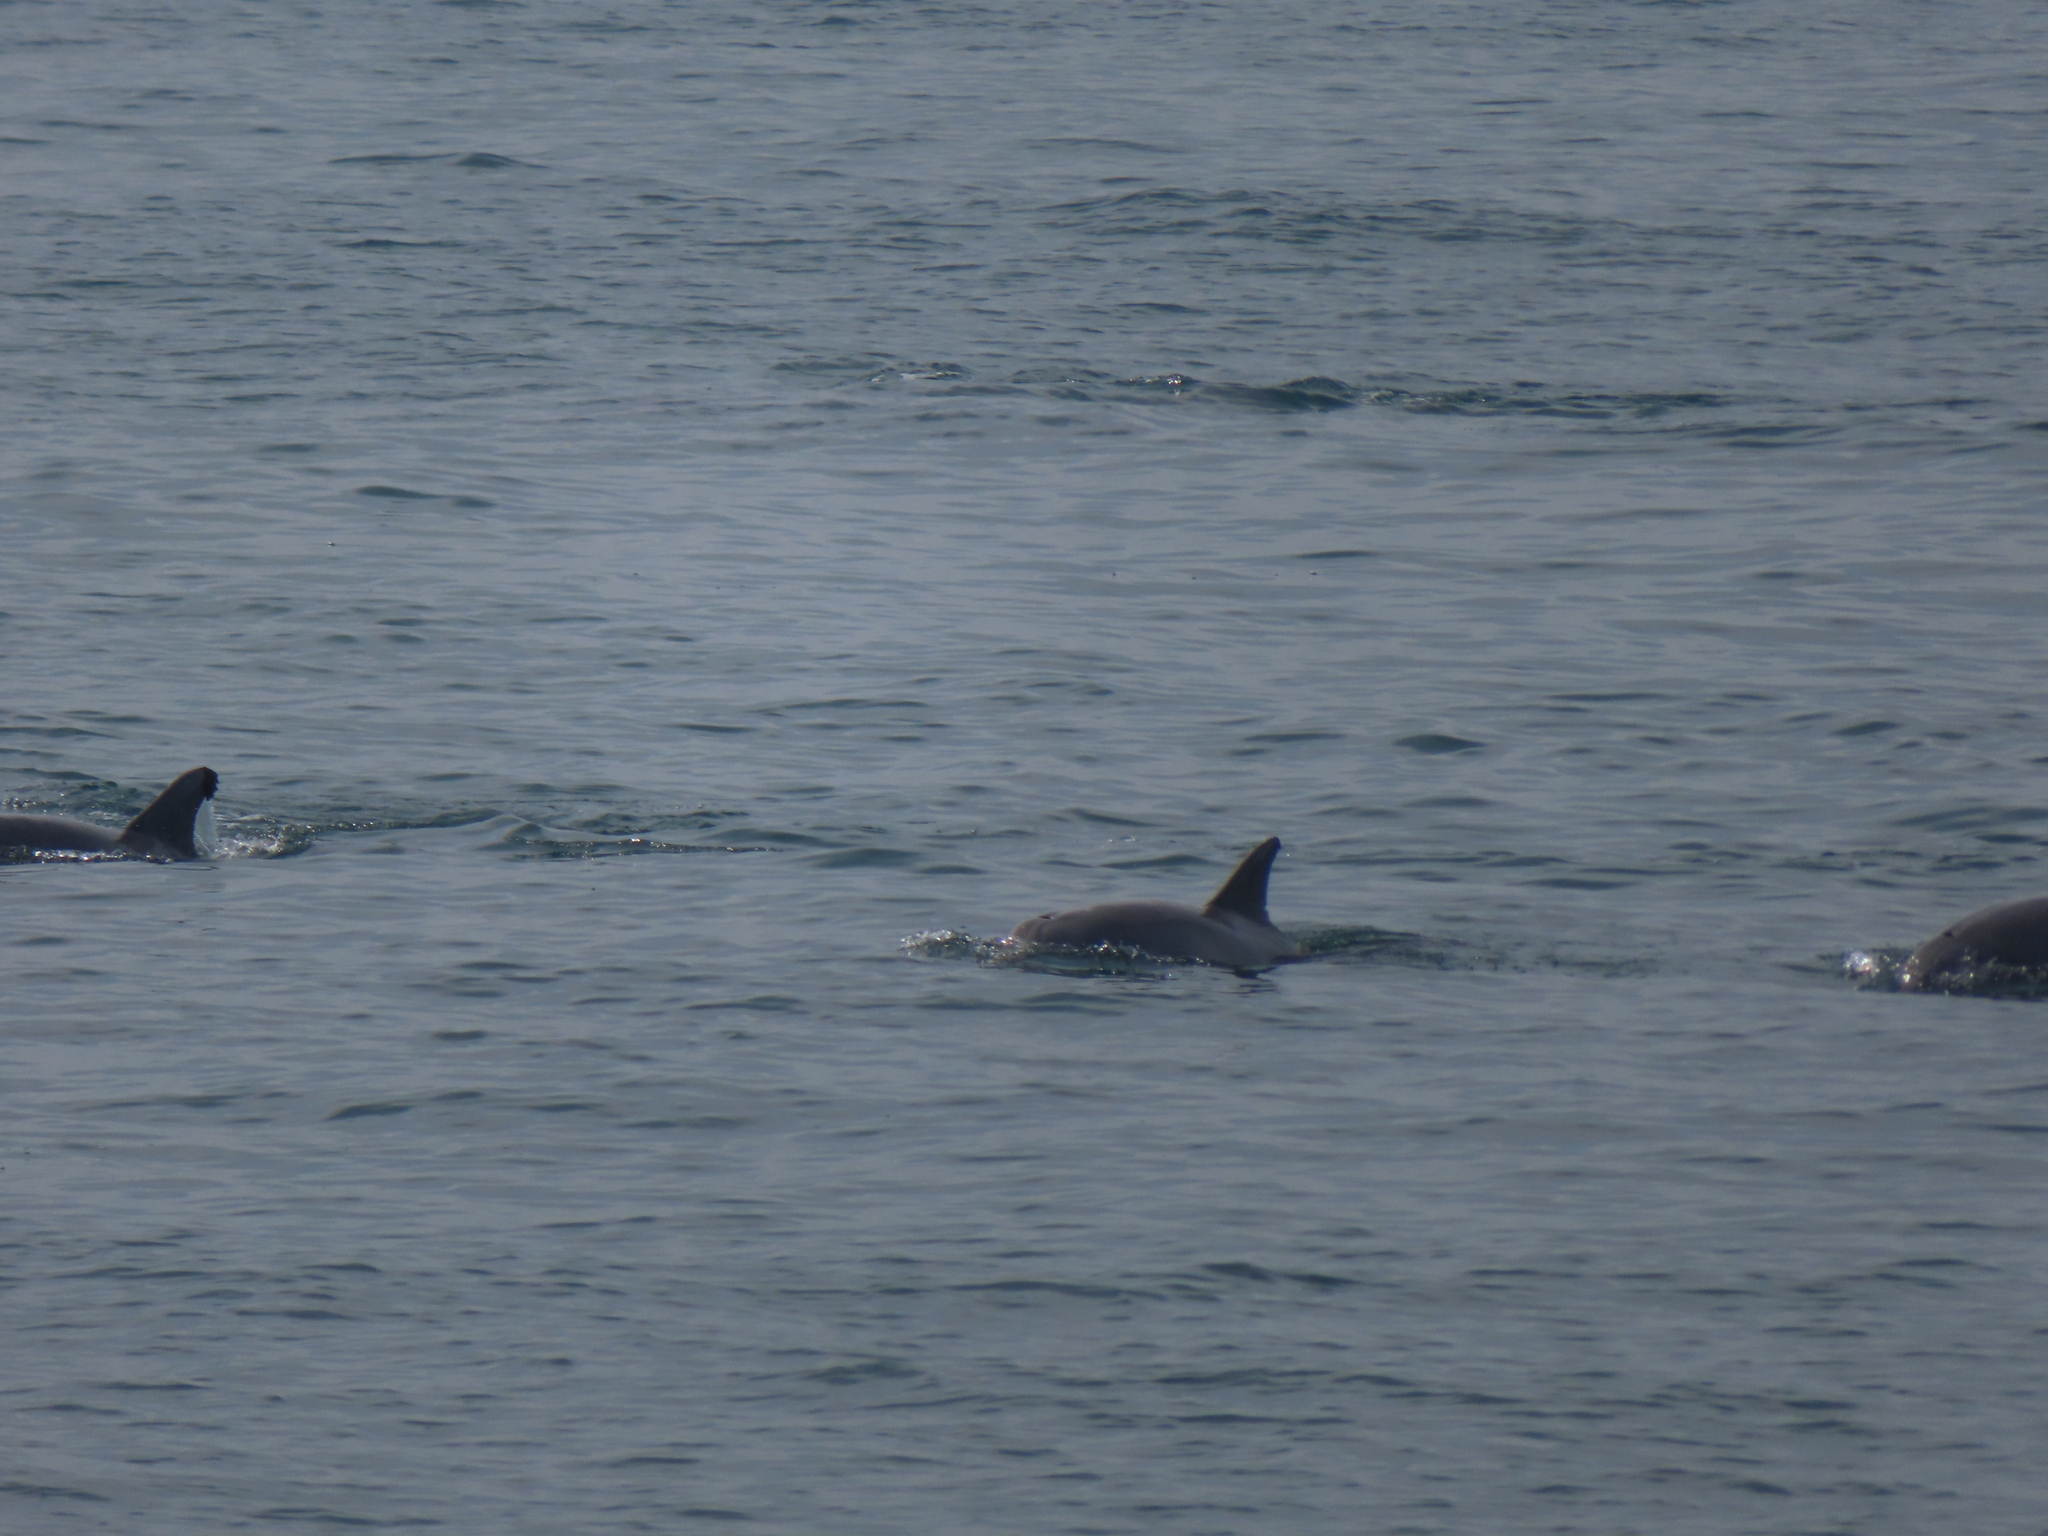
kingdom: Animalia
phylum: Chordata
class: Mammalia
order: Cetacea
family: Delphinidae
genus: Tursiops
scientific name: Tursiops truncatus
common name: Bottlenose dolphin
